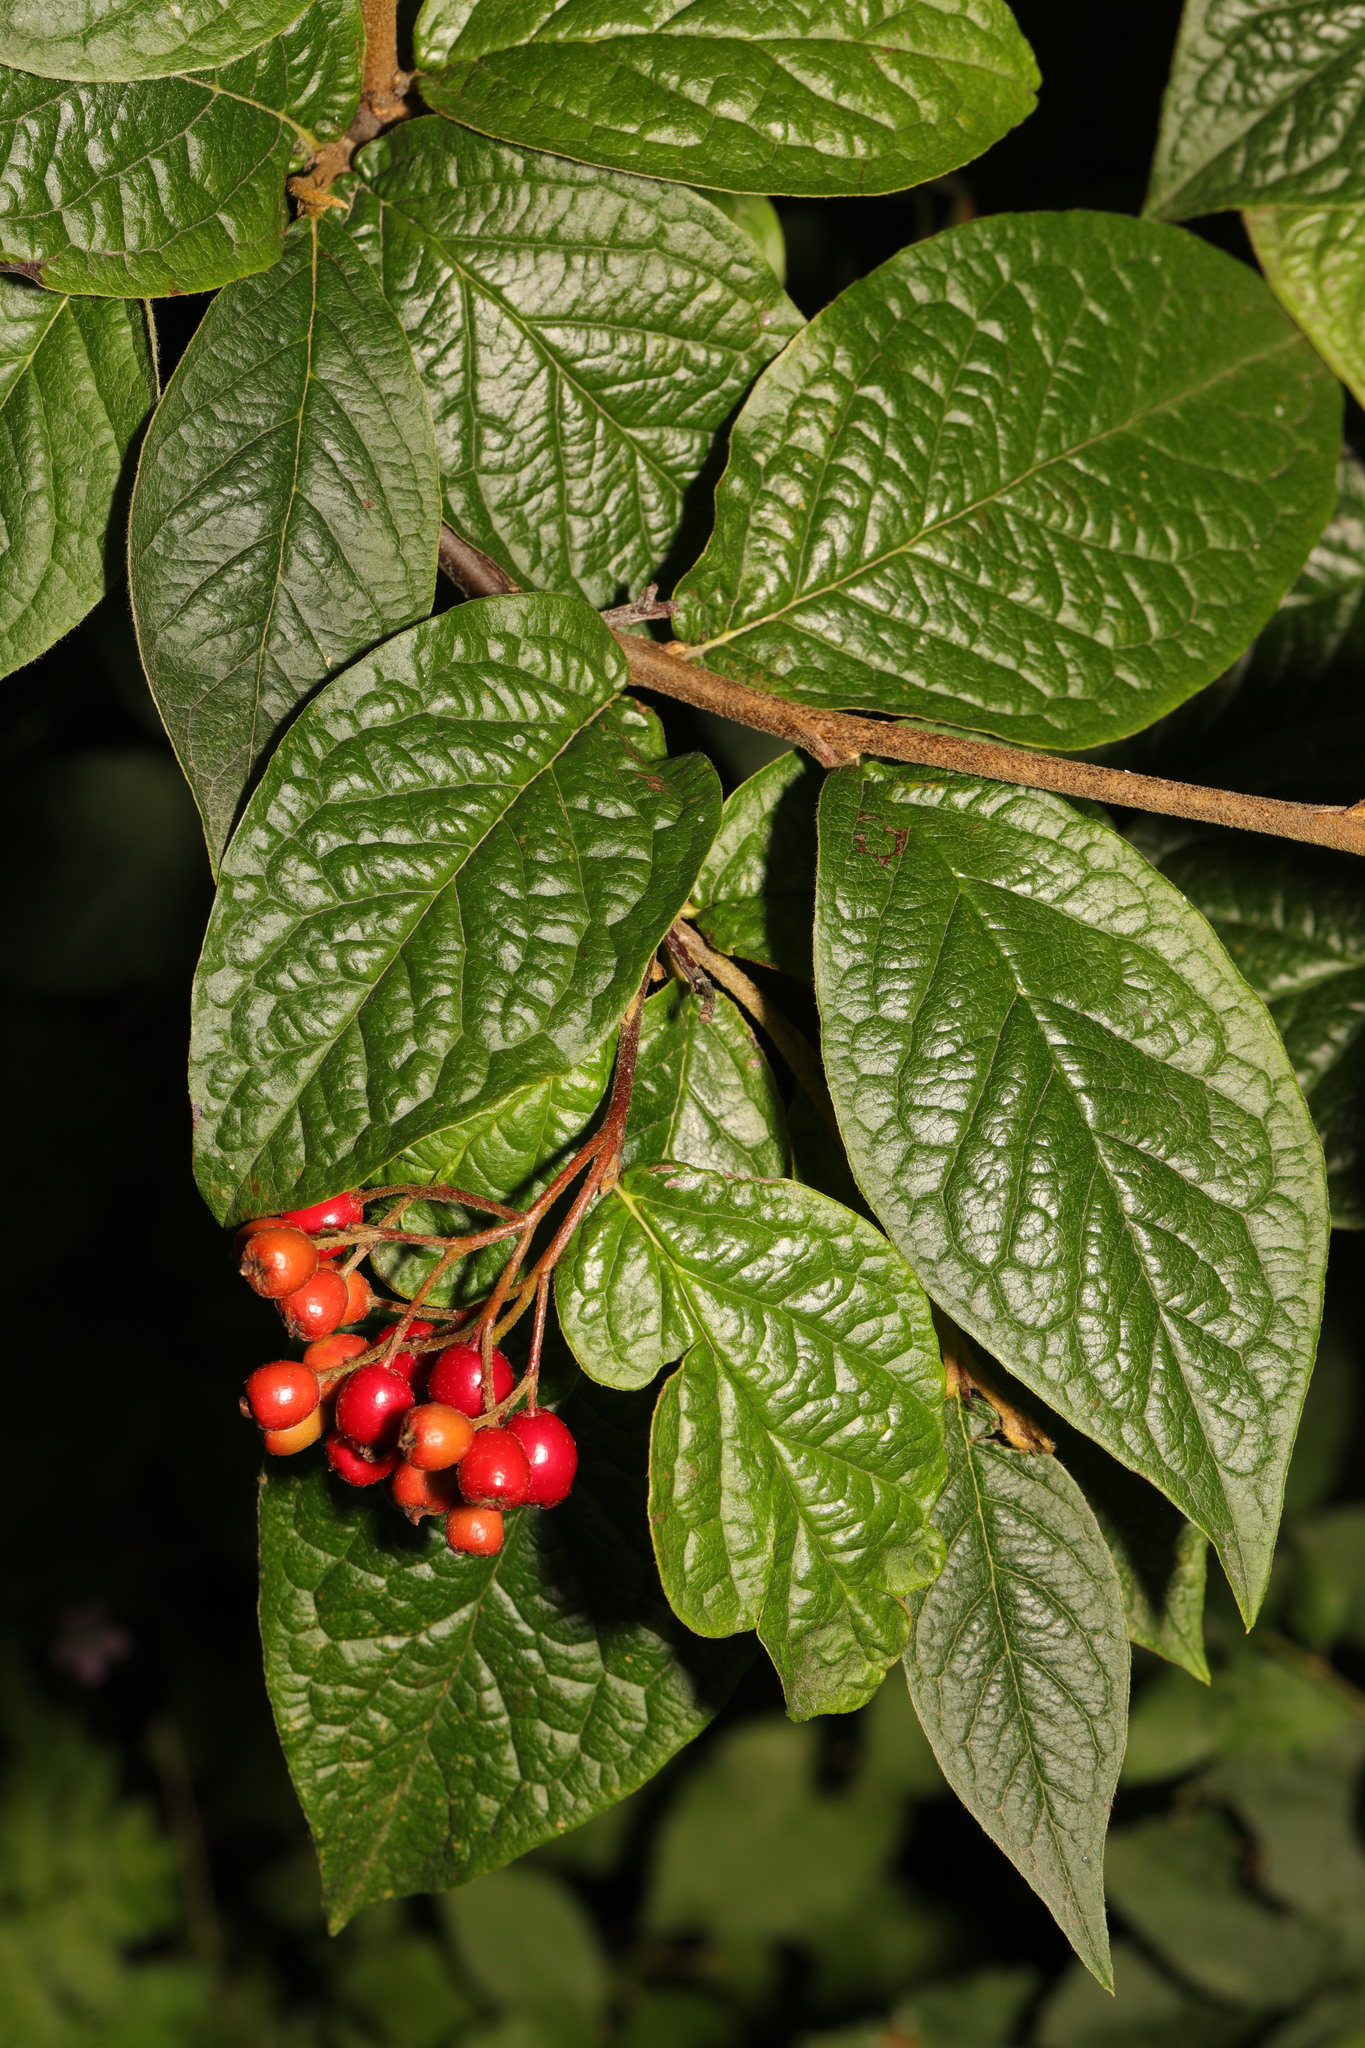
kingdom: Plantae
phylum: Tracheophyta
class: Magnoliopsida
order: Rosales
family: Rosaceae
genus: Cotoneaster
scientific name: Cotoneaster bullatus
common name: Hollyberry cotoneaster
